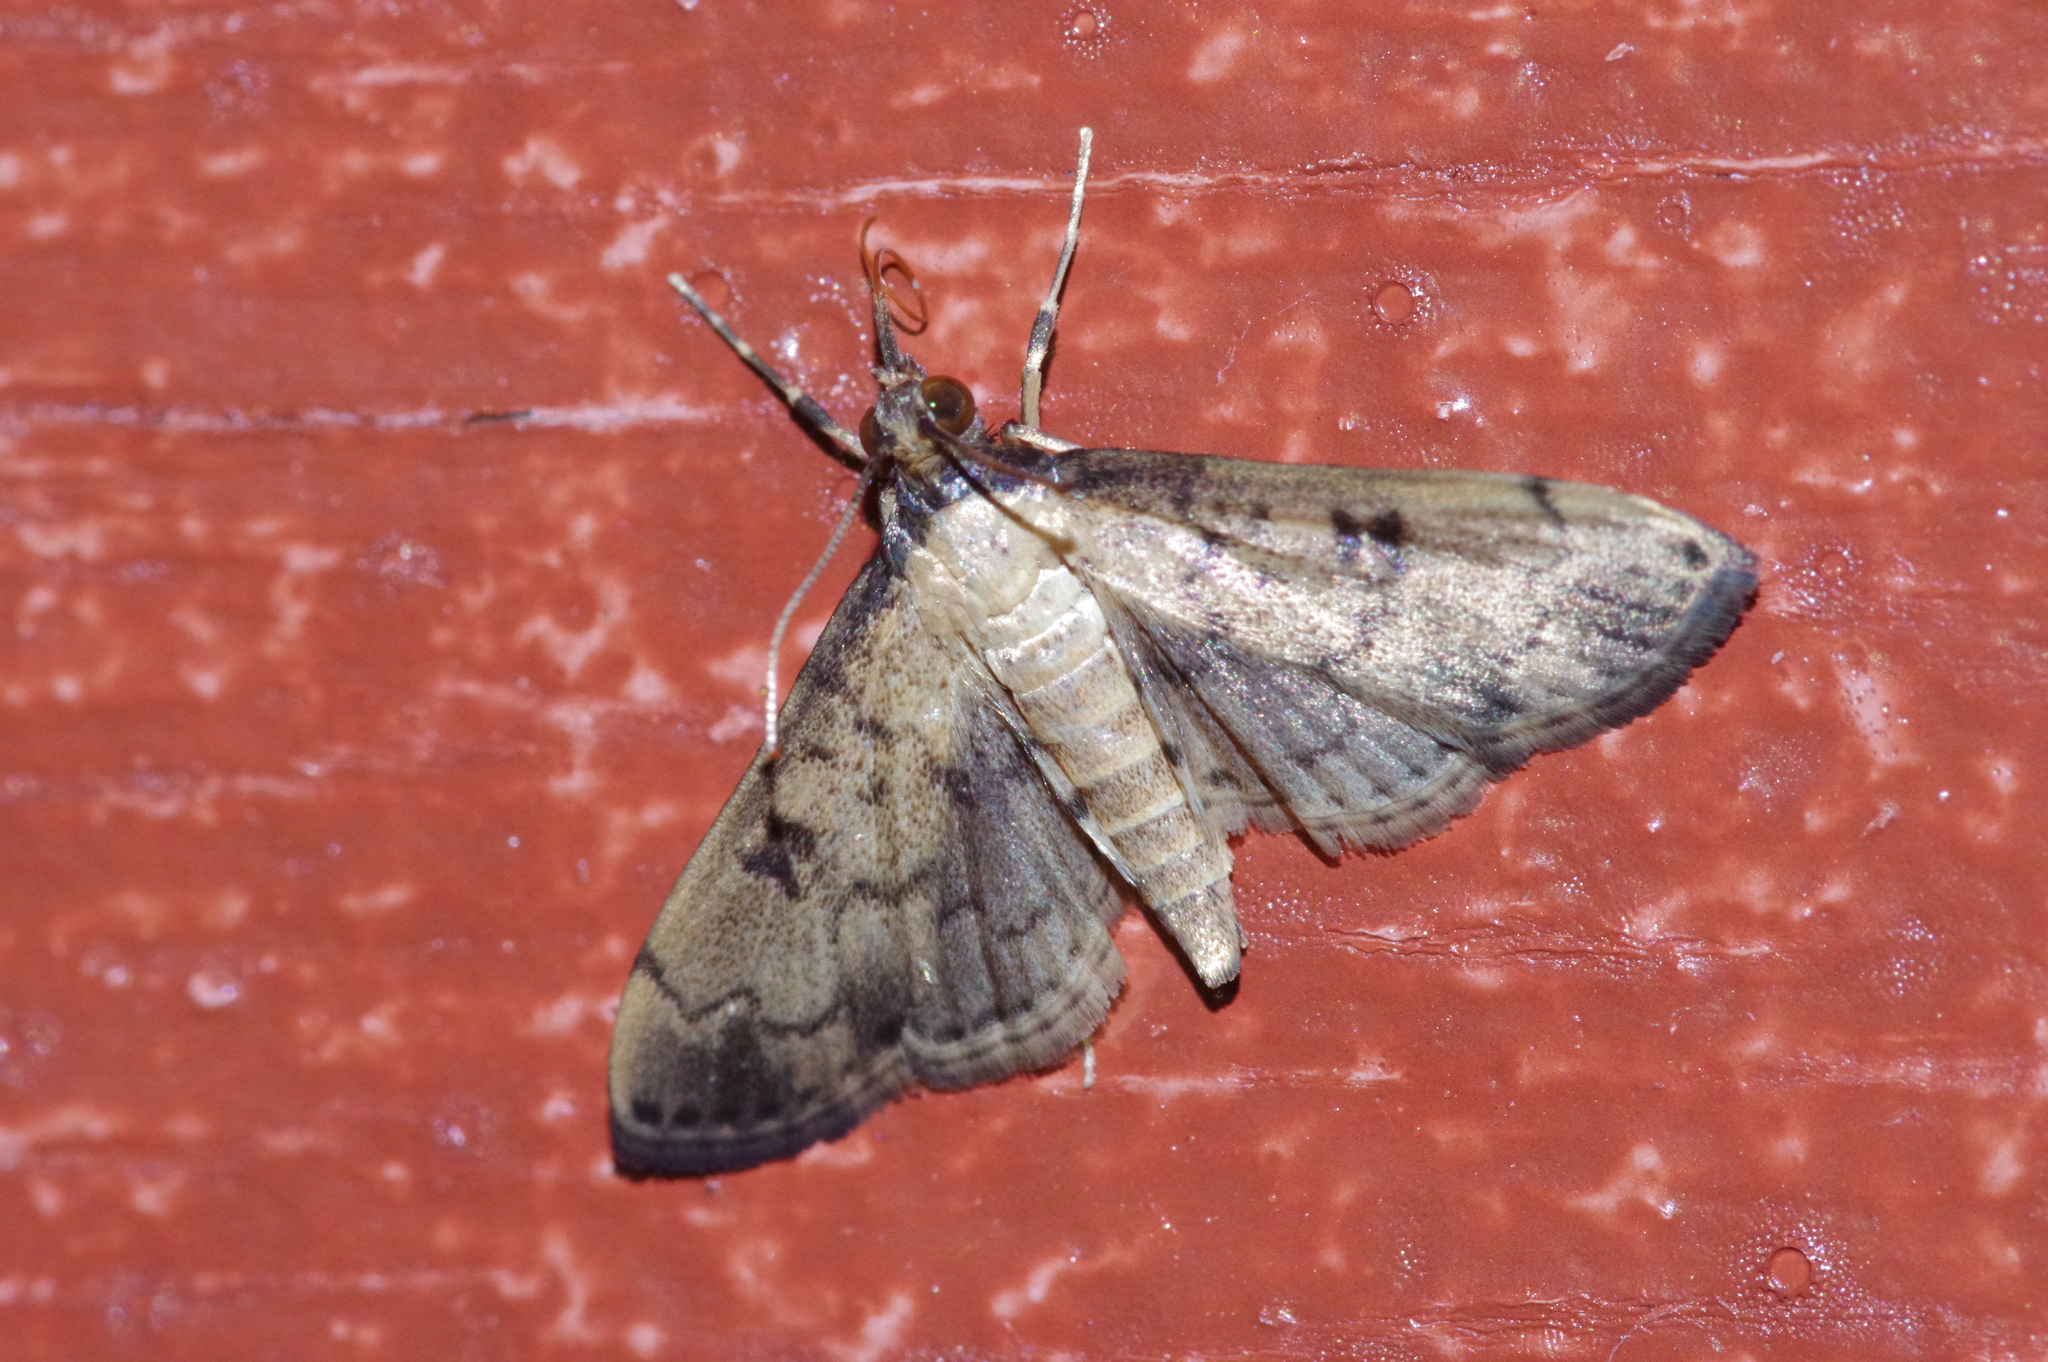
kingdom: Animalia
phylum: Arthropoda
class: Insecta
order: Lepidoptera
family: Crambidae
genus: Nacoleia
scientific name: Nacoleia charesalis
